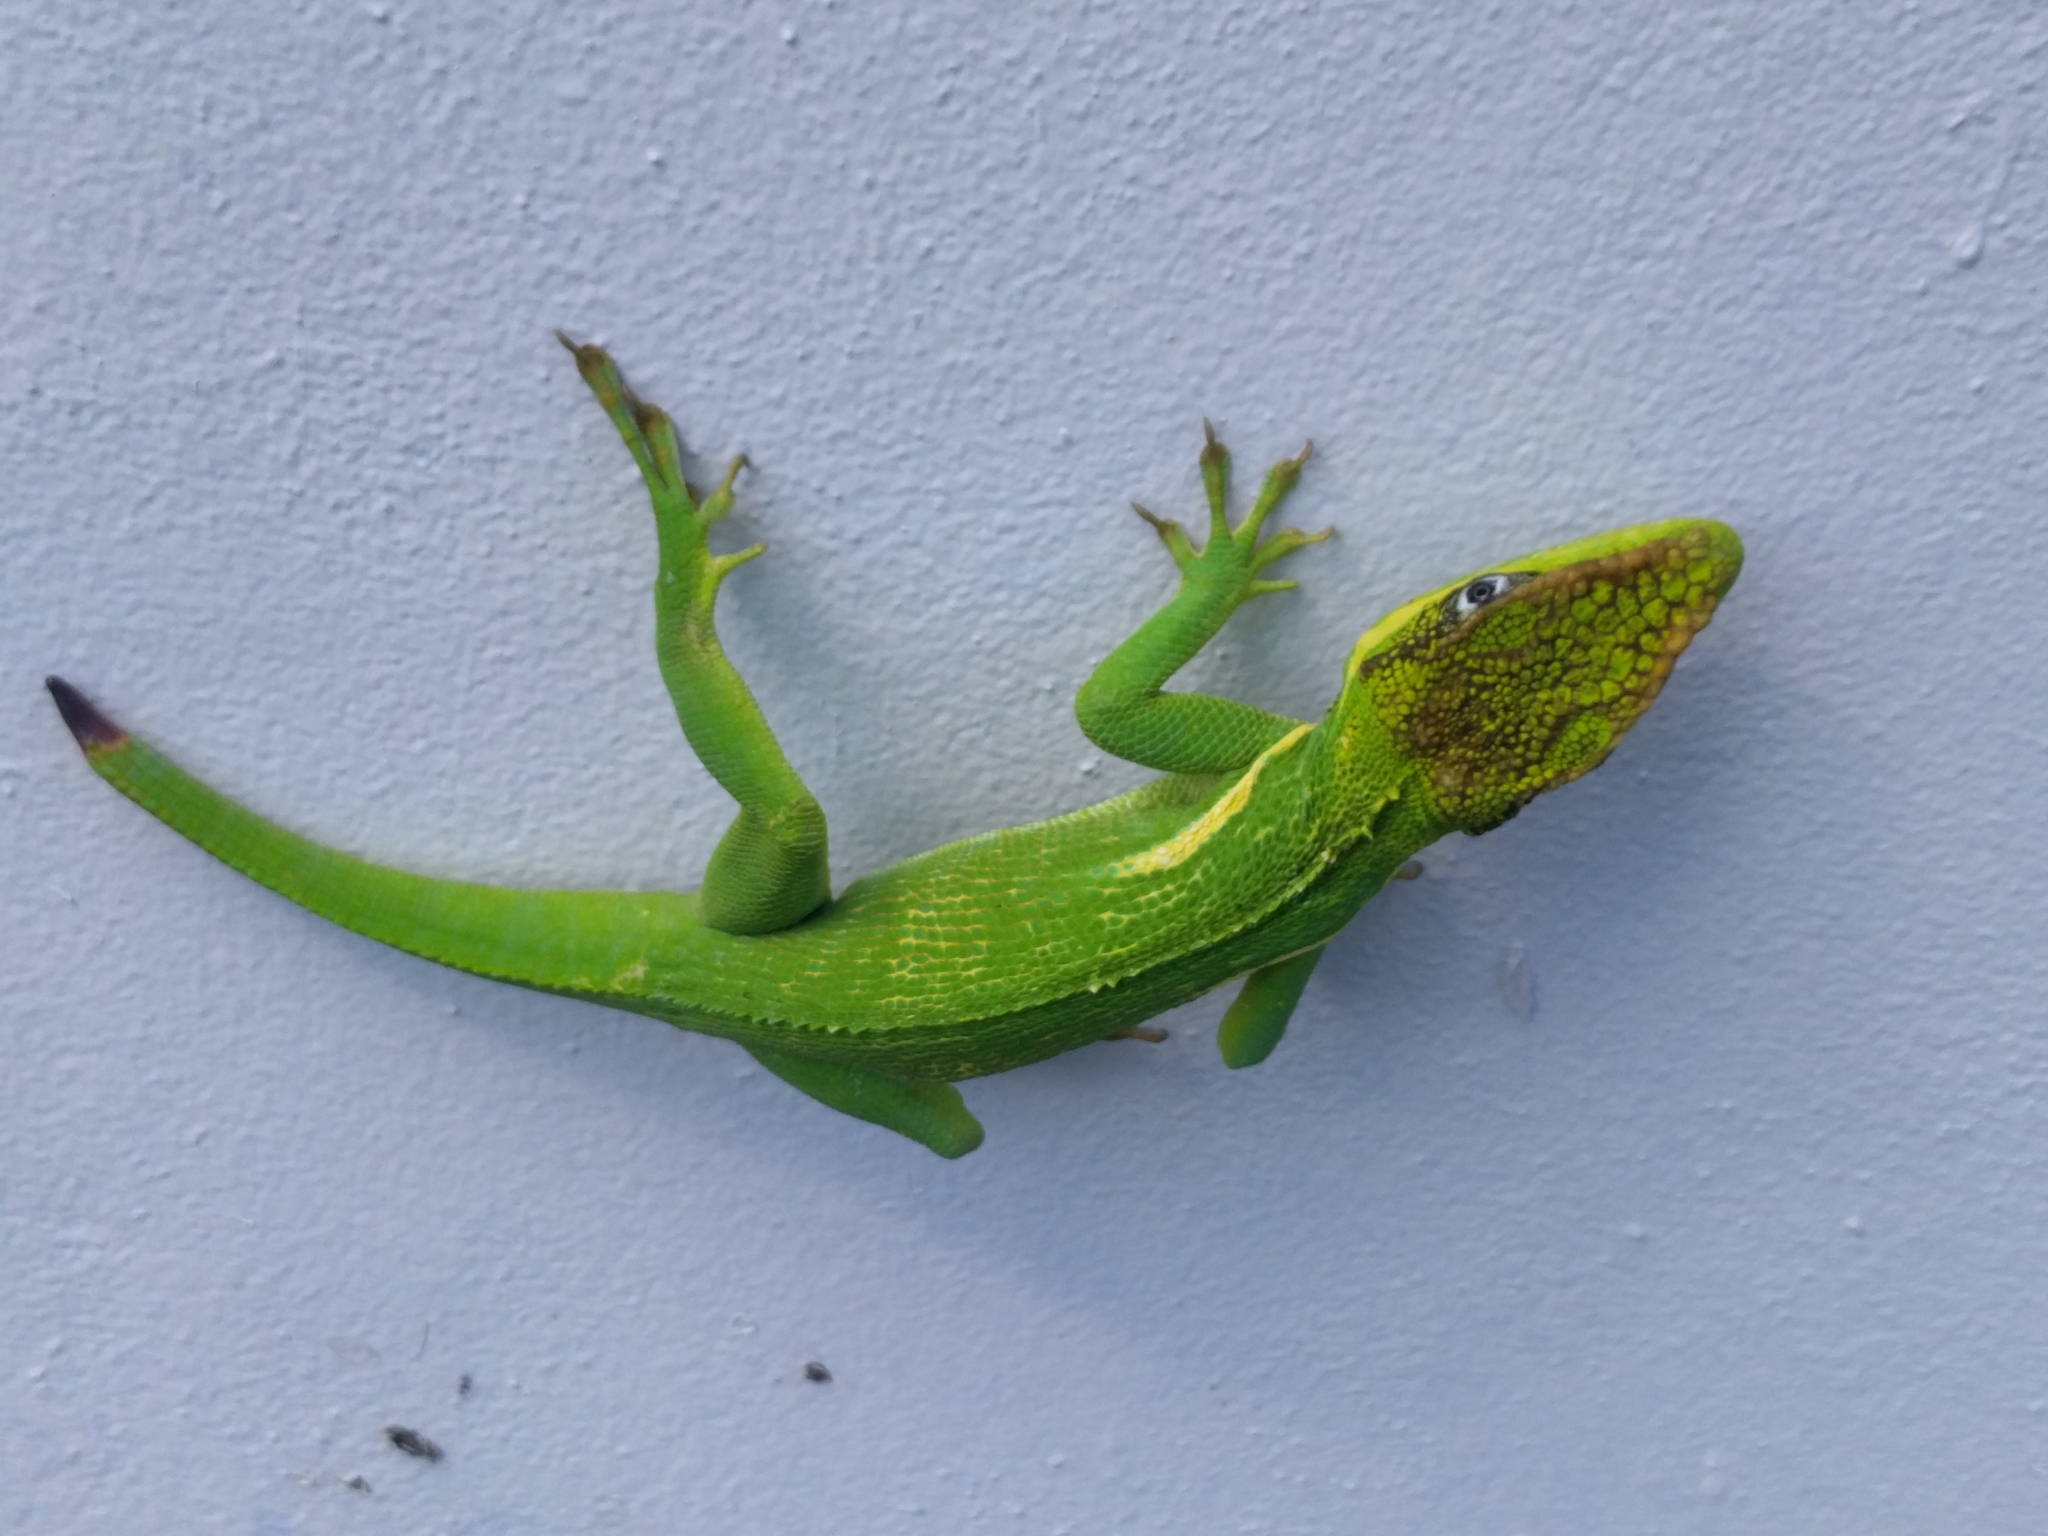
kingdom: Animalia
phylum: Chordata
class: Squamata
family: Dactyloidae
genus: Anolis
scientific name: Anolis equestris
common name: Knight anole
